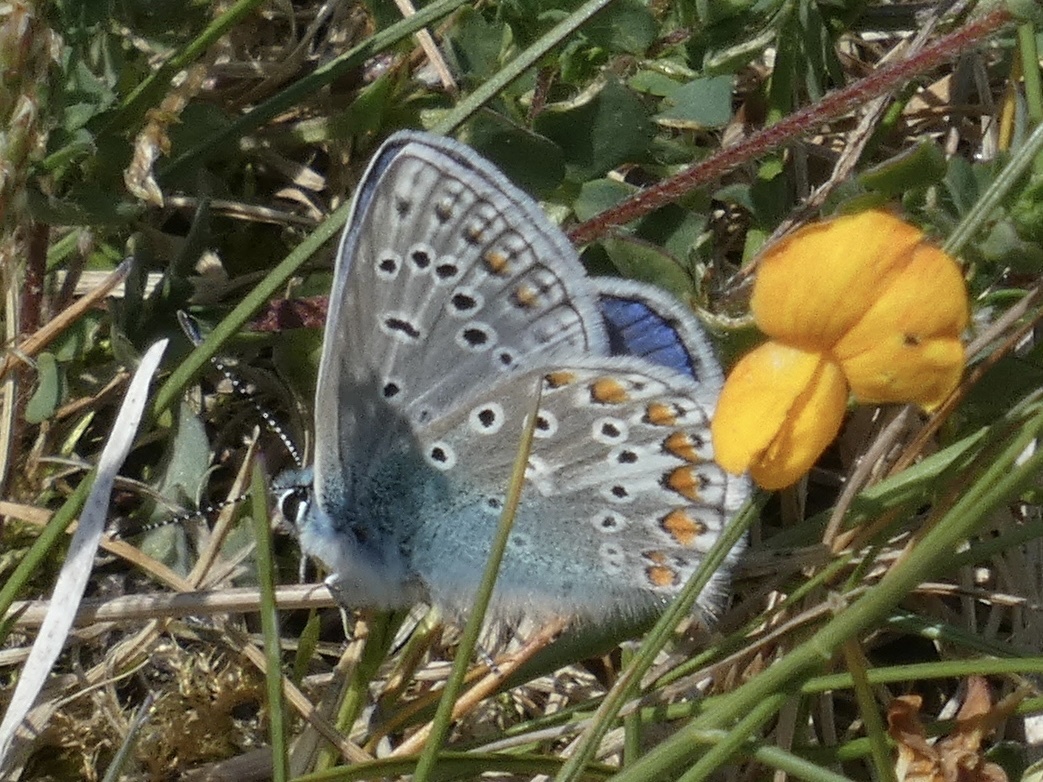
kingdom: Animalia
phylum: Arthropoda
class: Insecta
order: Lepidoptera
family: Lycaenidae
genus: Polyommatus
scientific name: Polyommatus icarus
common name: Common blue
